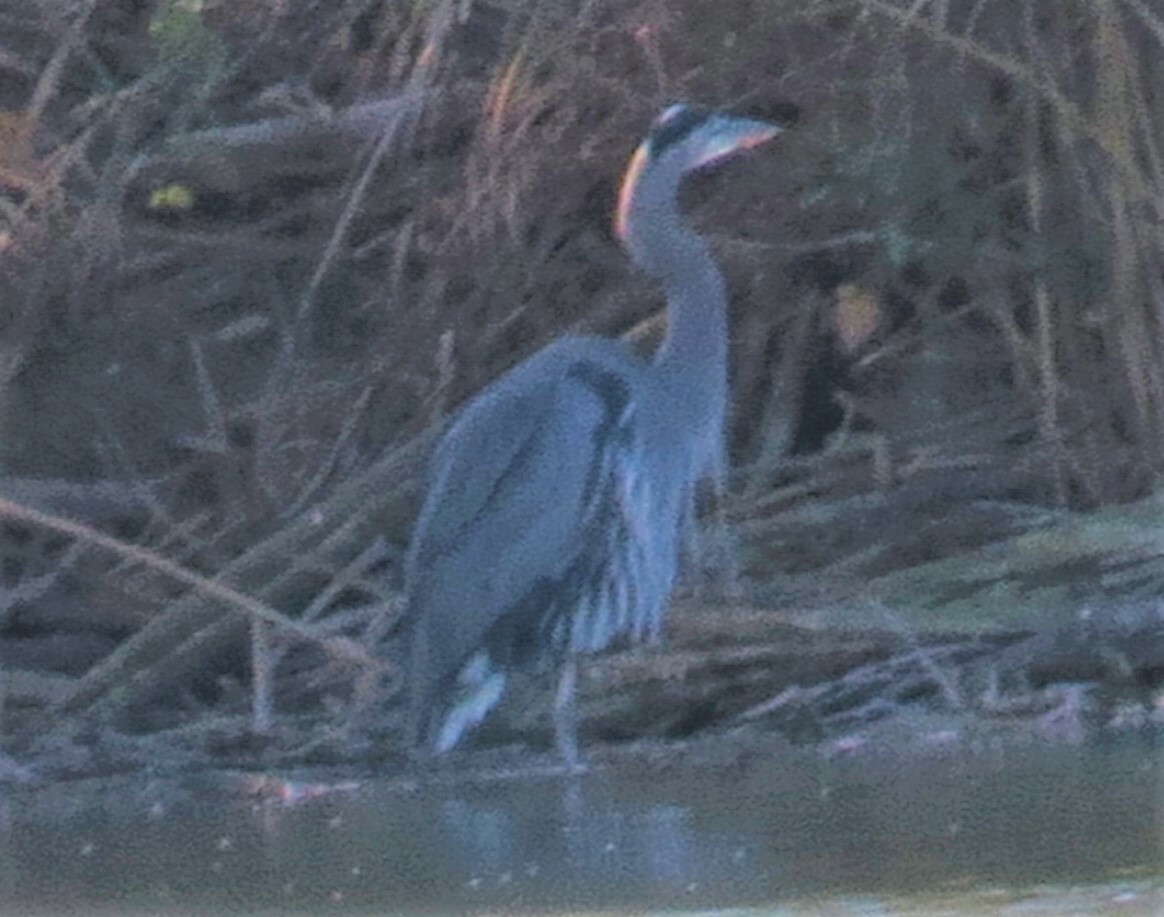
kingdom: Animalia
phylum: Chordata
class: Aves
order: Pelecaniformes
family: Ardeidae
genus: Ardea
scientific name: Ardea herodias
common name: Great blue heron
